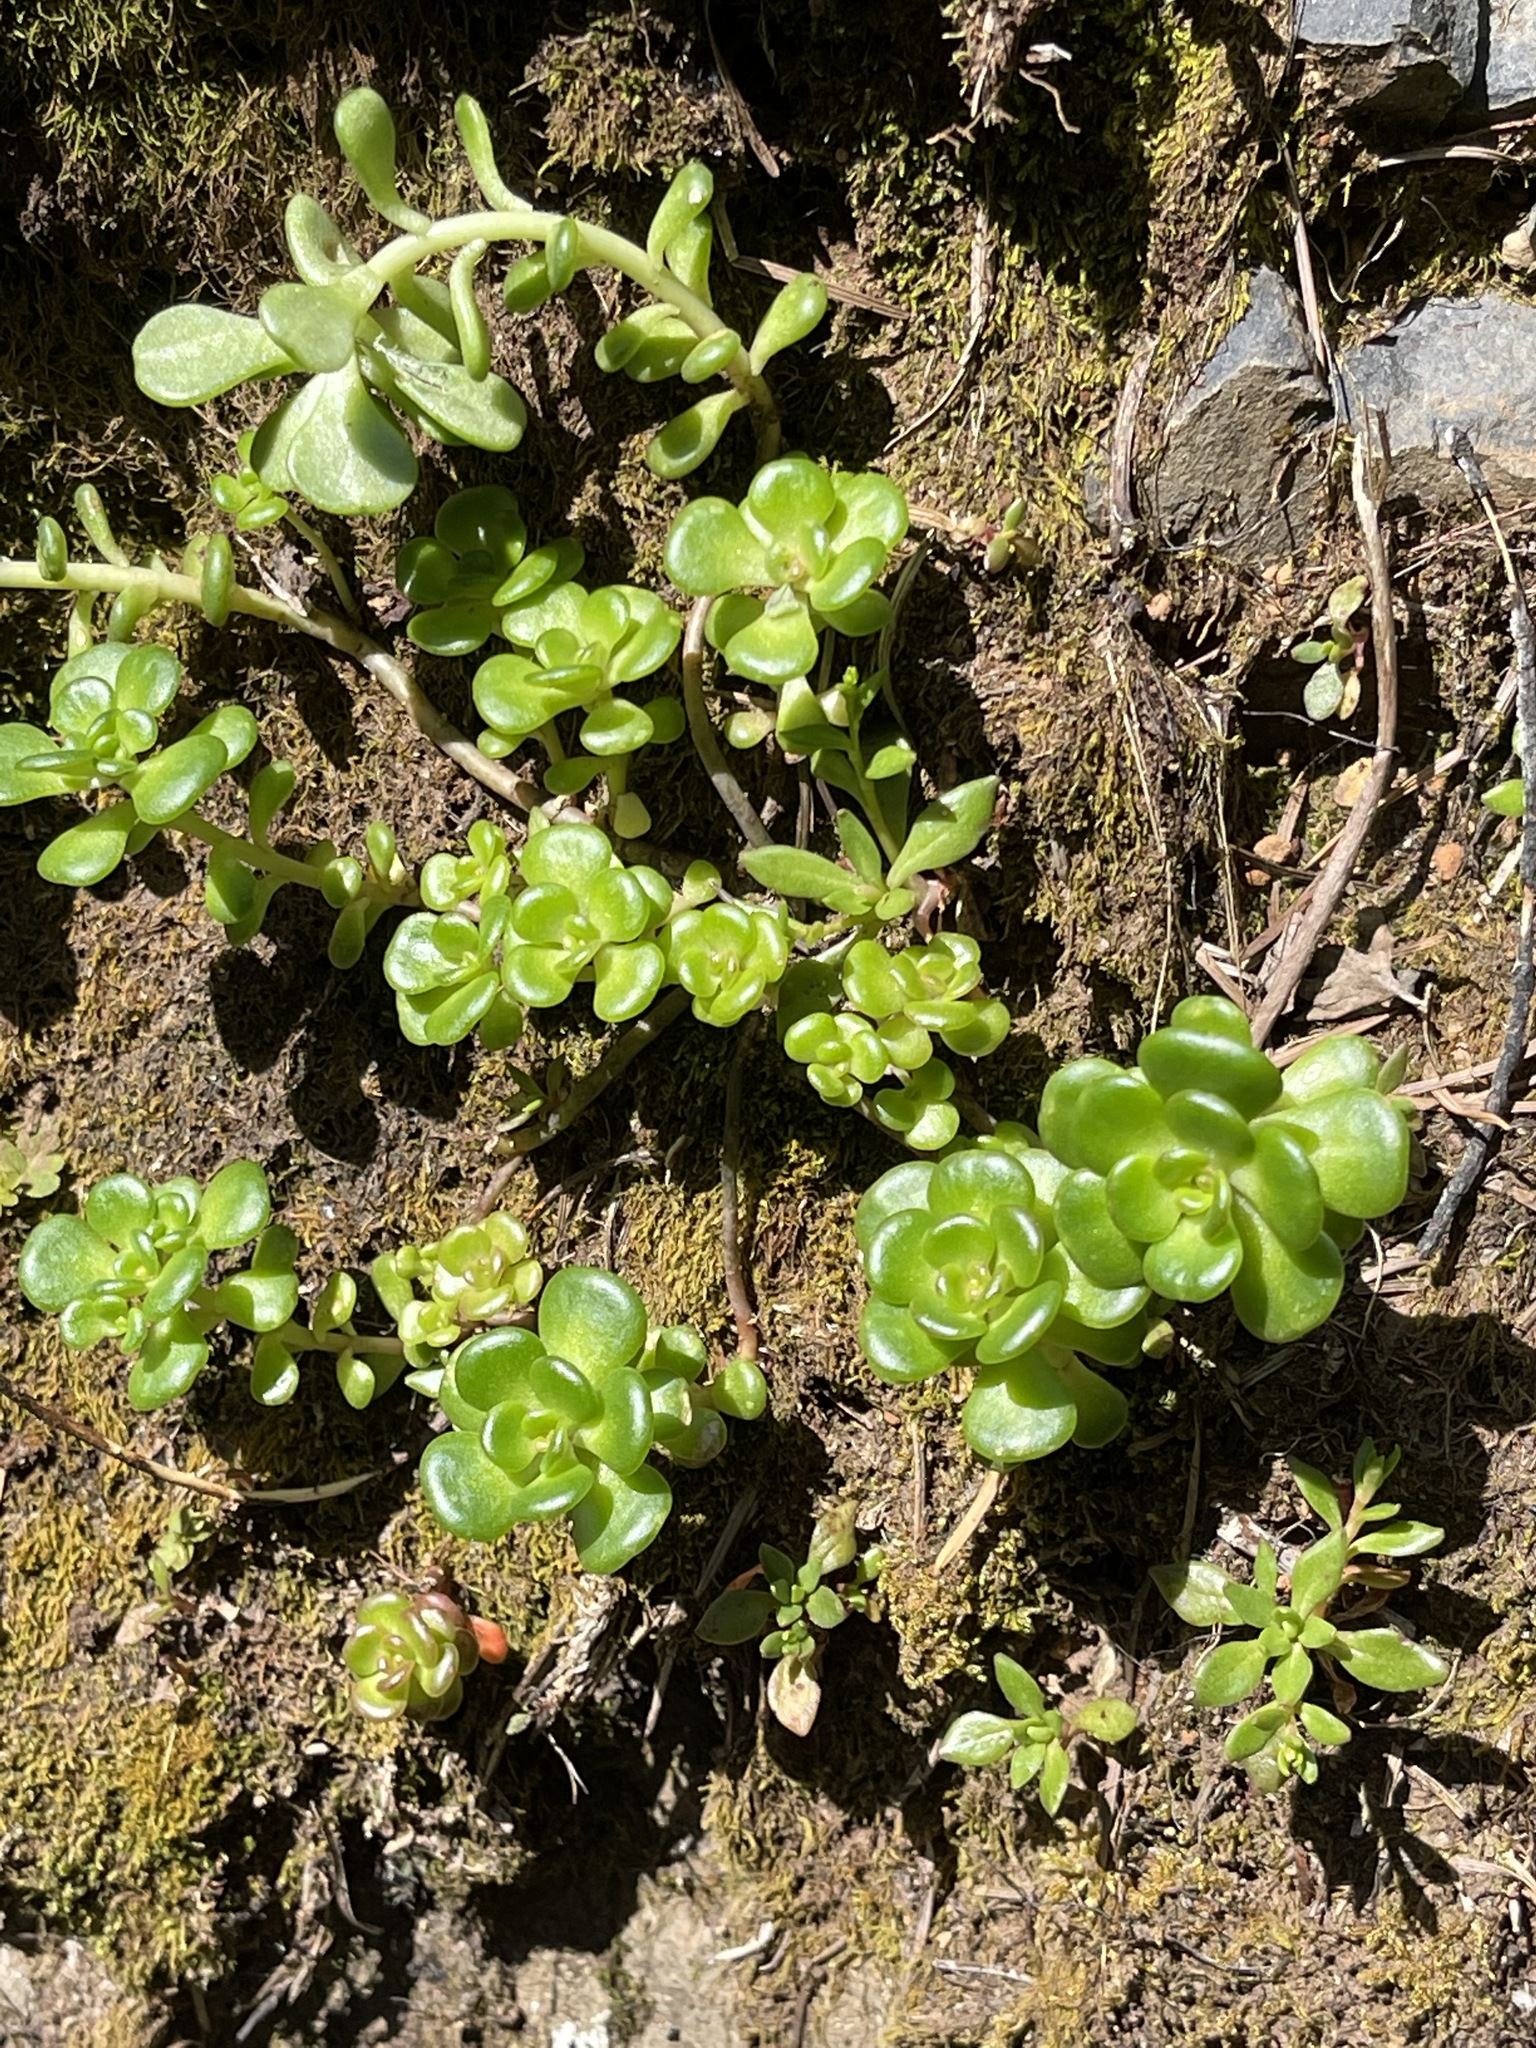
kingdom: Plantae
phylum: Tracheophyta
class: Magnoliopsida
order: Saxifragales
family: Crassulaceae
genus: Sedum
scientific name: Sedum oreganum
